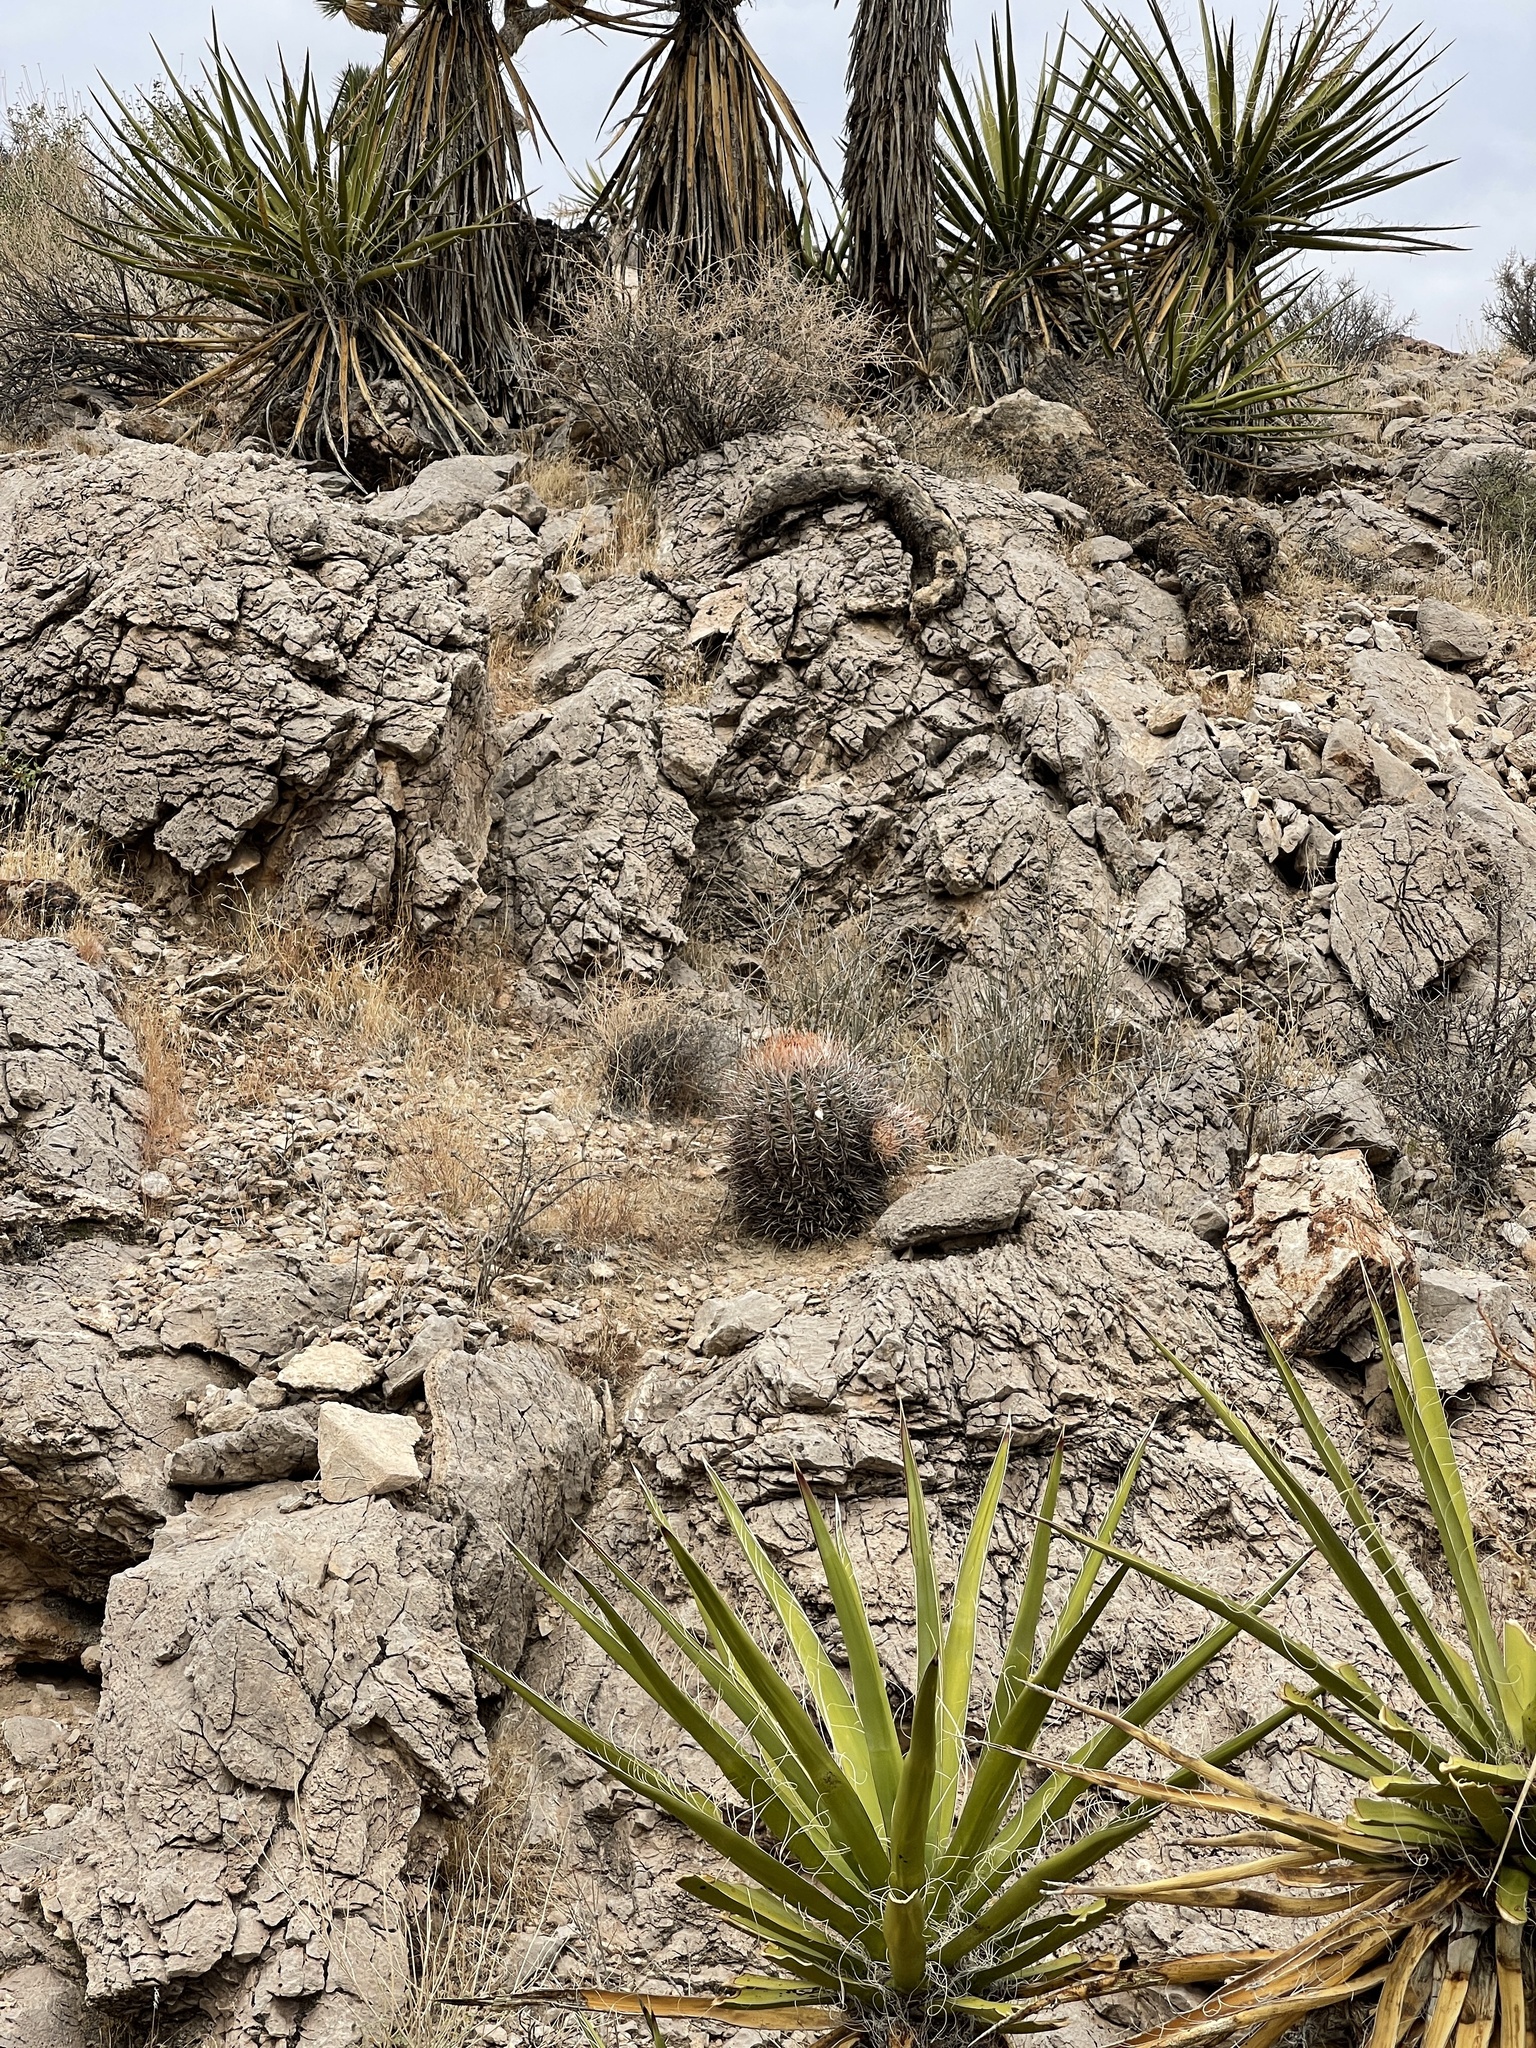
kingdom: Plantae
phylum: Tracheophyta
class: Magnoliopsida
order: Caryophyllales
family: Cactaceae
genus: Echinocactus
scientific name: Echinocactus polycephalus
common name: Cottontop cactus
